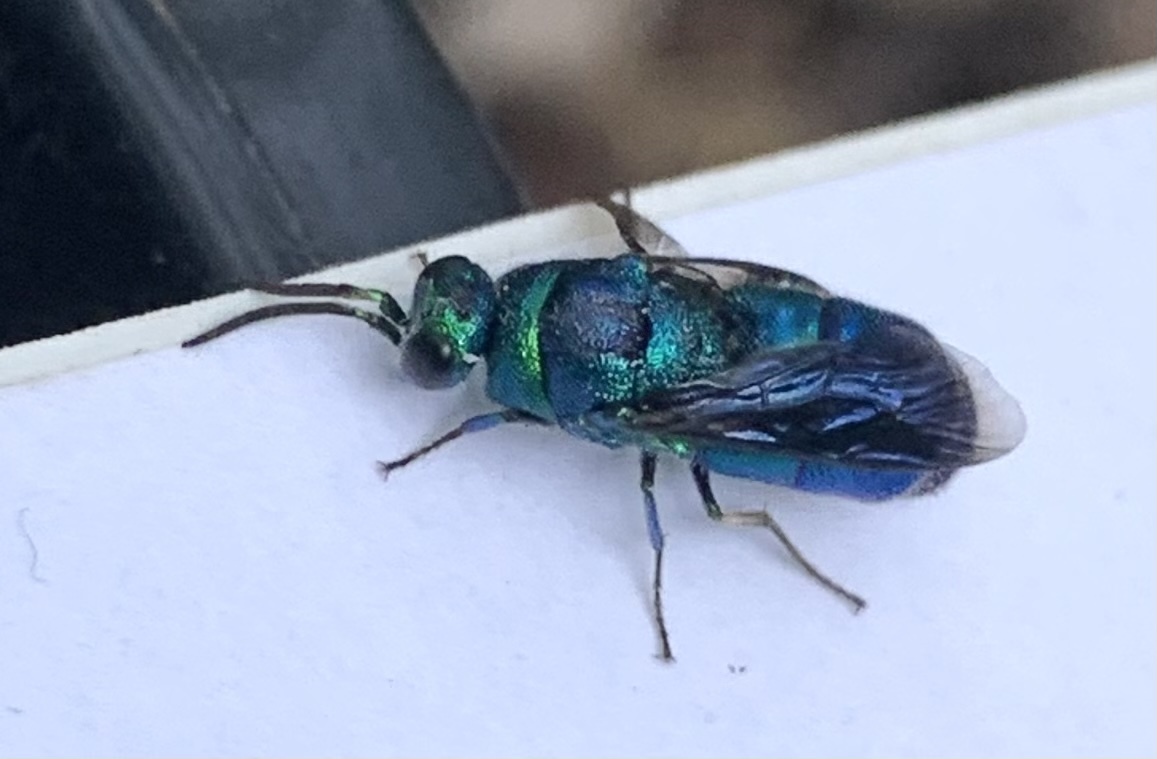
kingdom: Animalia
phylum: Arthropoda
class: Insecta
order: Hymenoptera
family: Chrysididae
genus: Chrysis
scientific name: Chrysis angolensis
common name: Cuckoo wasp
